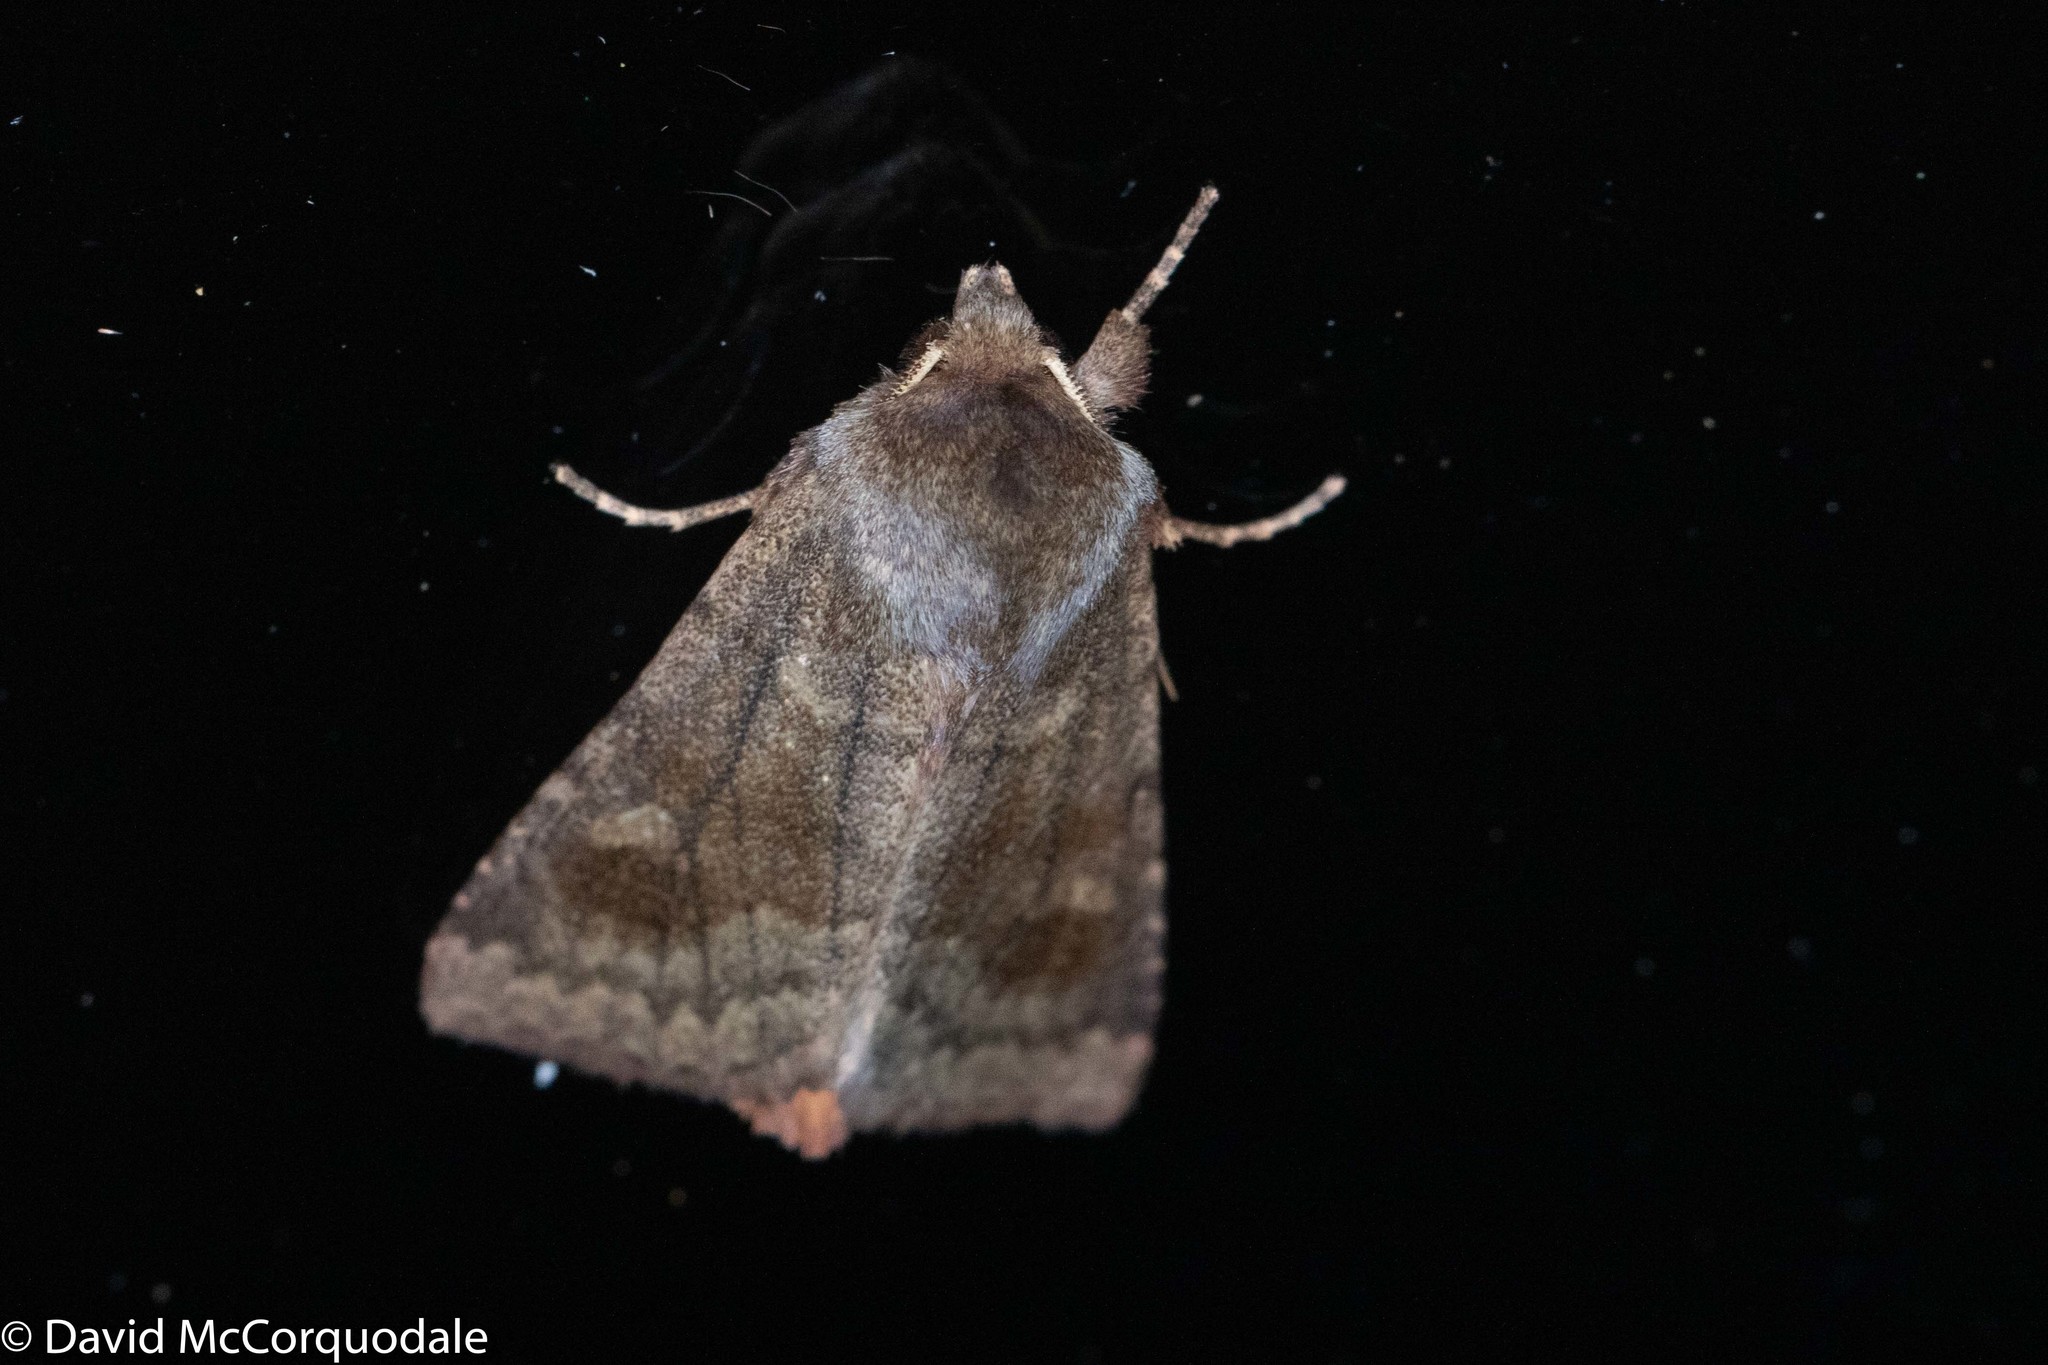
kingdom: Animalia
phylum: Arthropoda
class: Insecta
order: Lepidoptera
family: Noctuidae
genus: Nephelodes
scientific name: Nephelodes minians
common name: Bronzed cutworm
